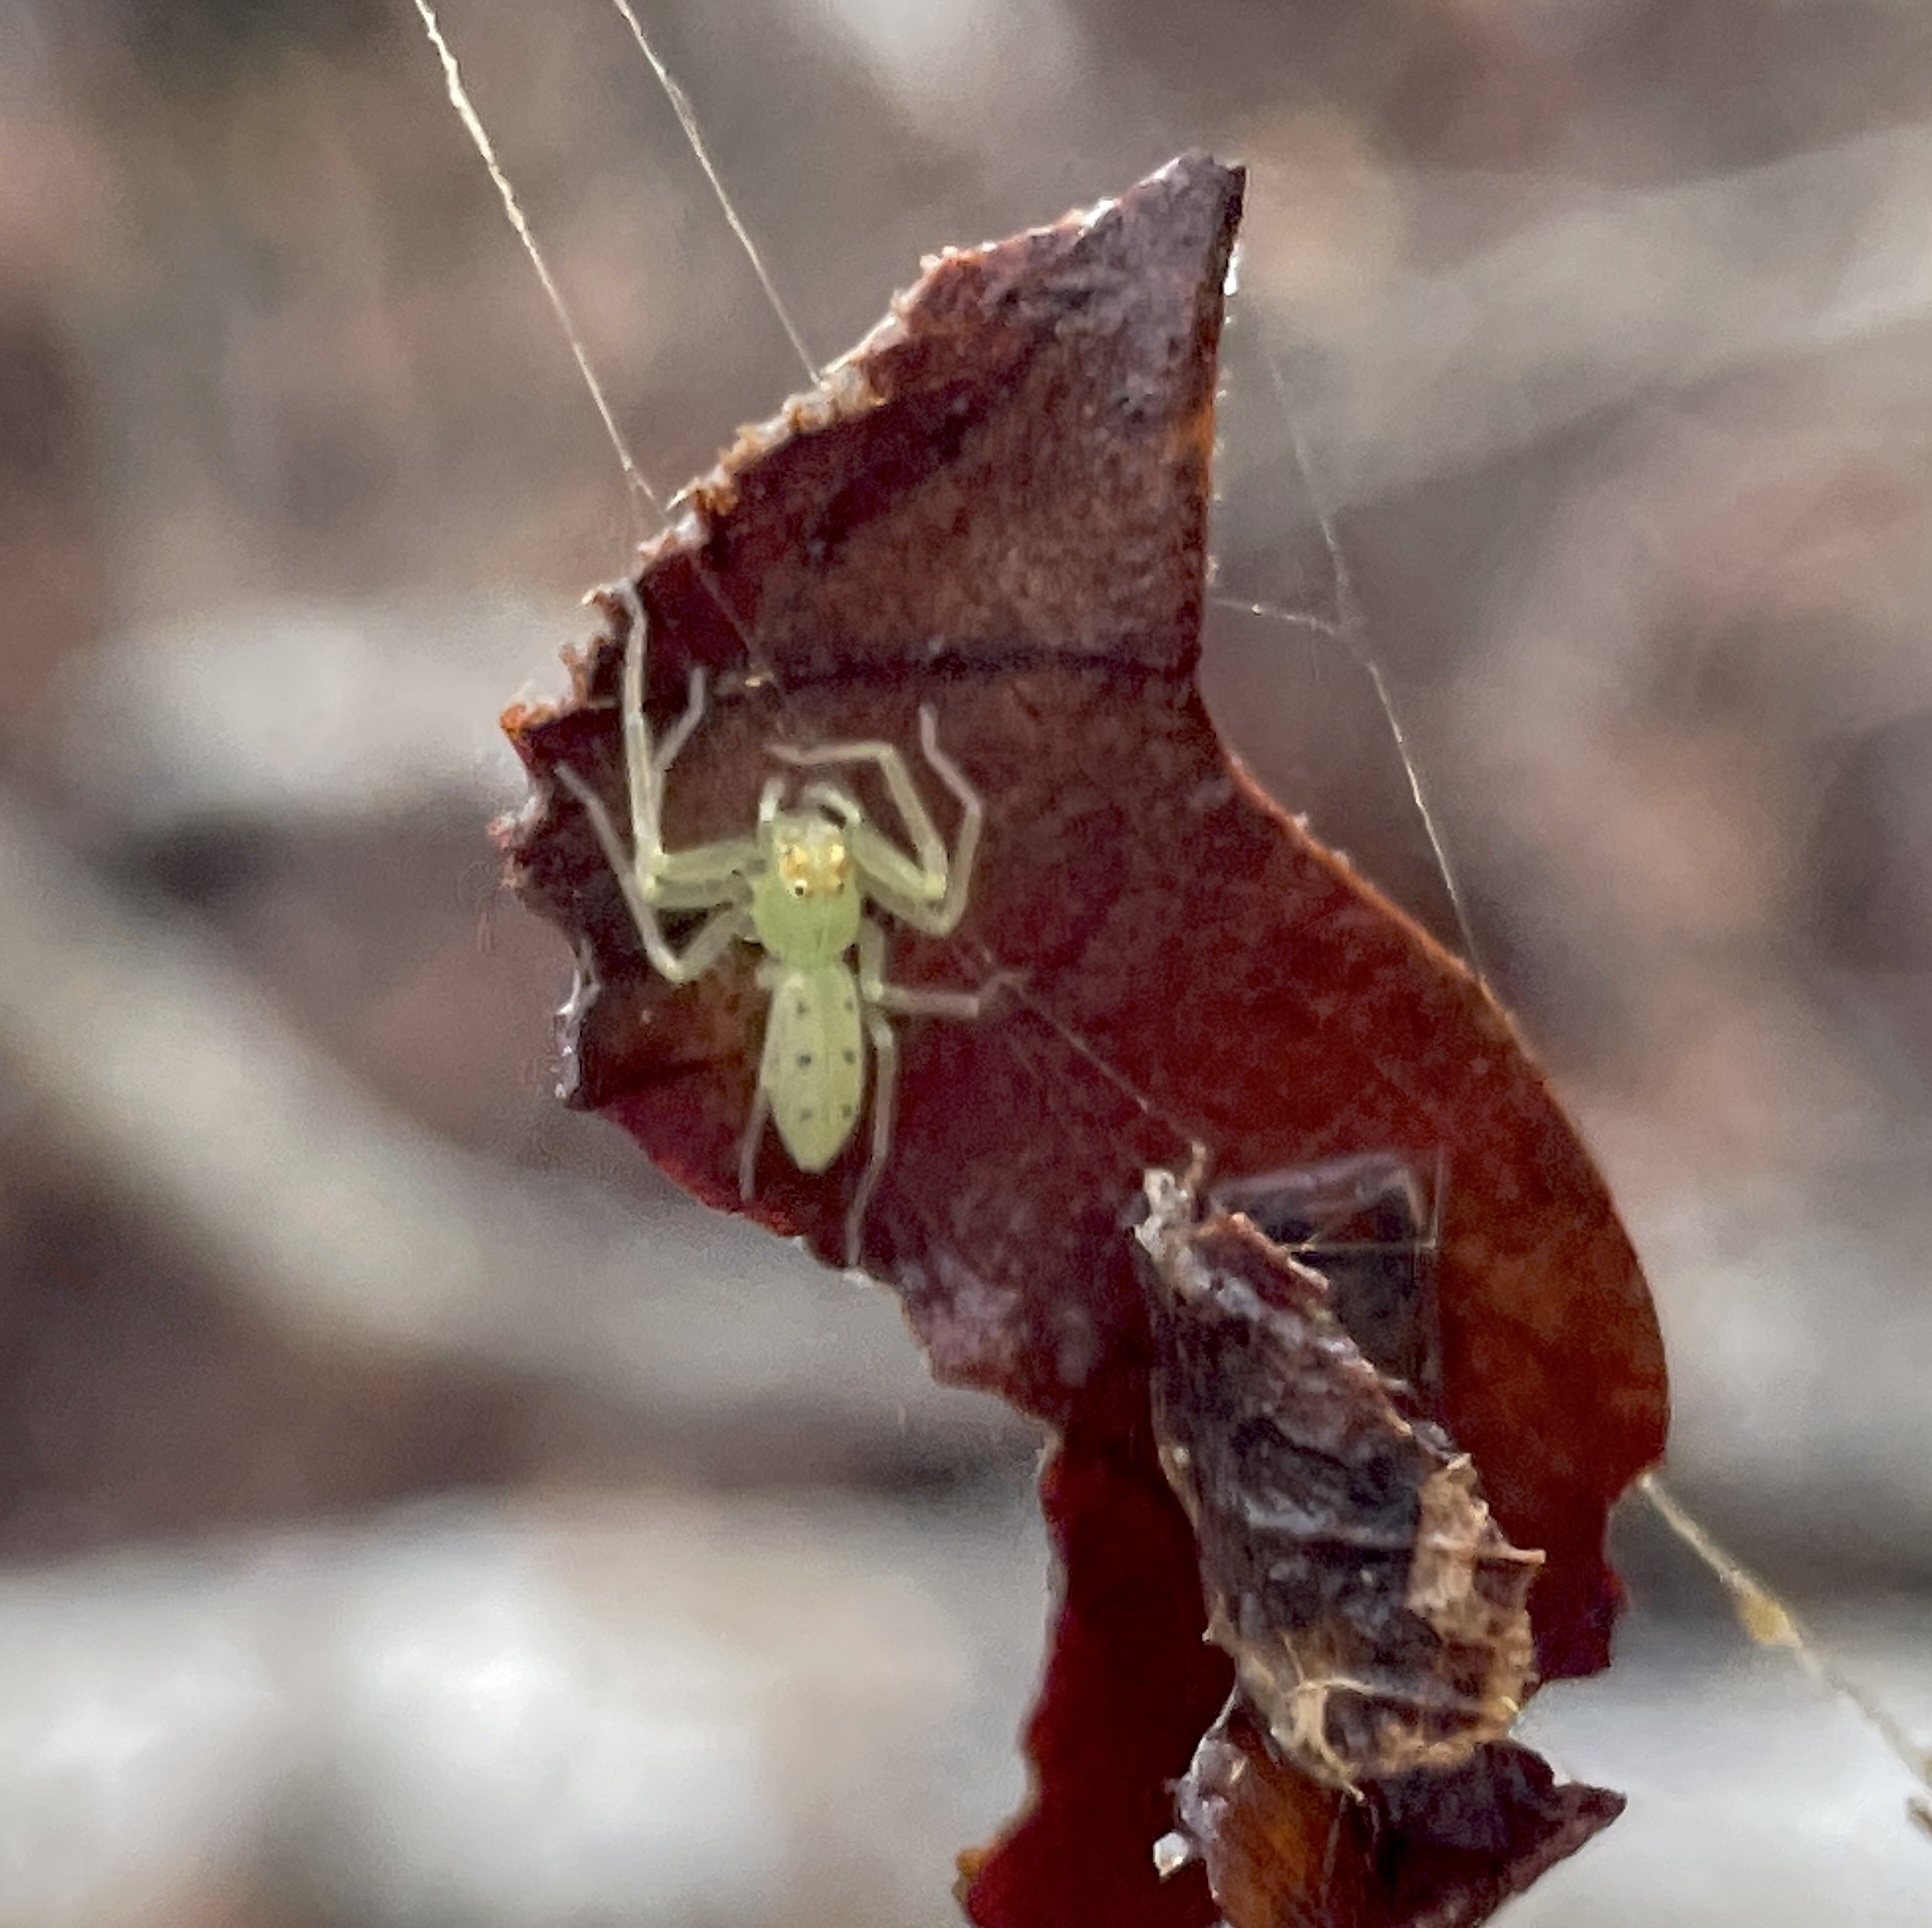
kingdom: Animalia
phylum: Arthropoda
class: Arachnida
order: Araneae
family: Salticidae
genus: Lyssomanes
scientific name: Lyssomanes viridis
